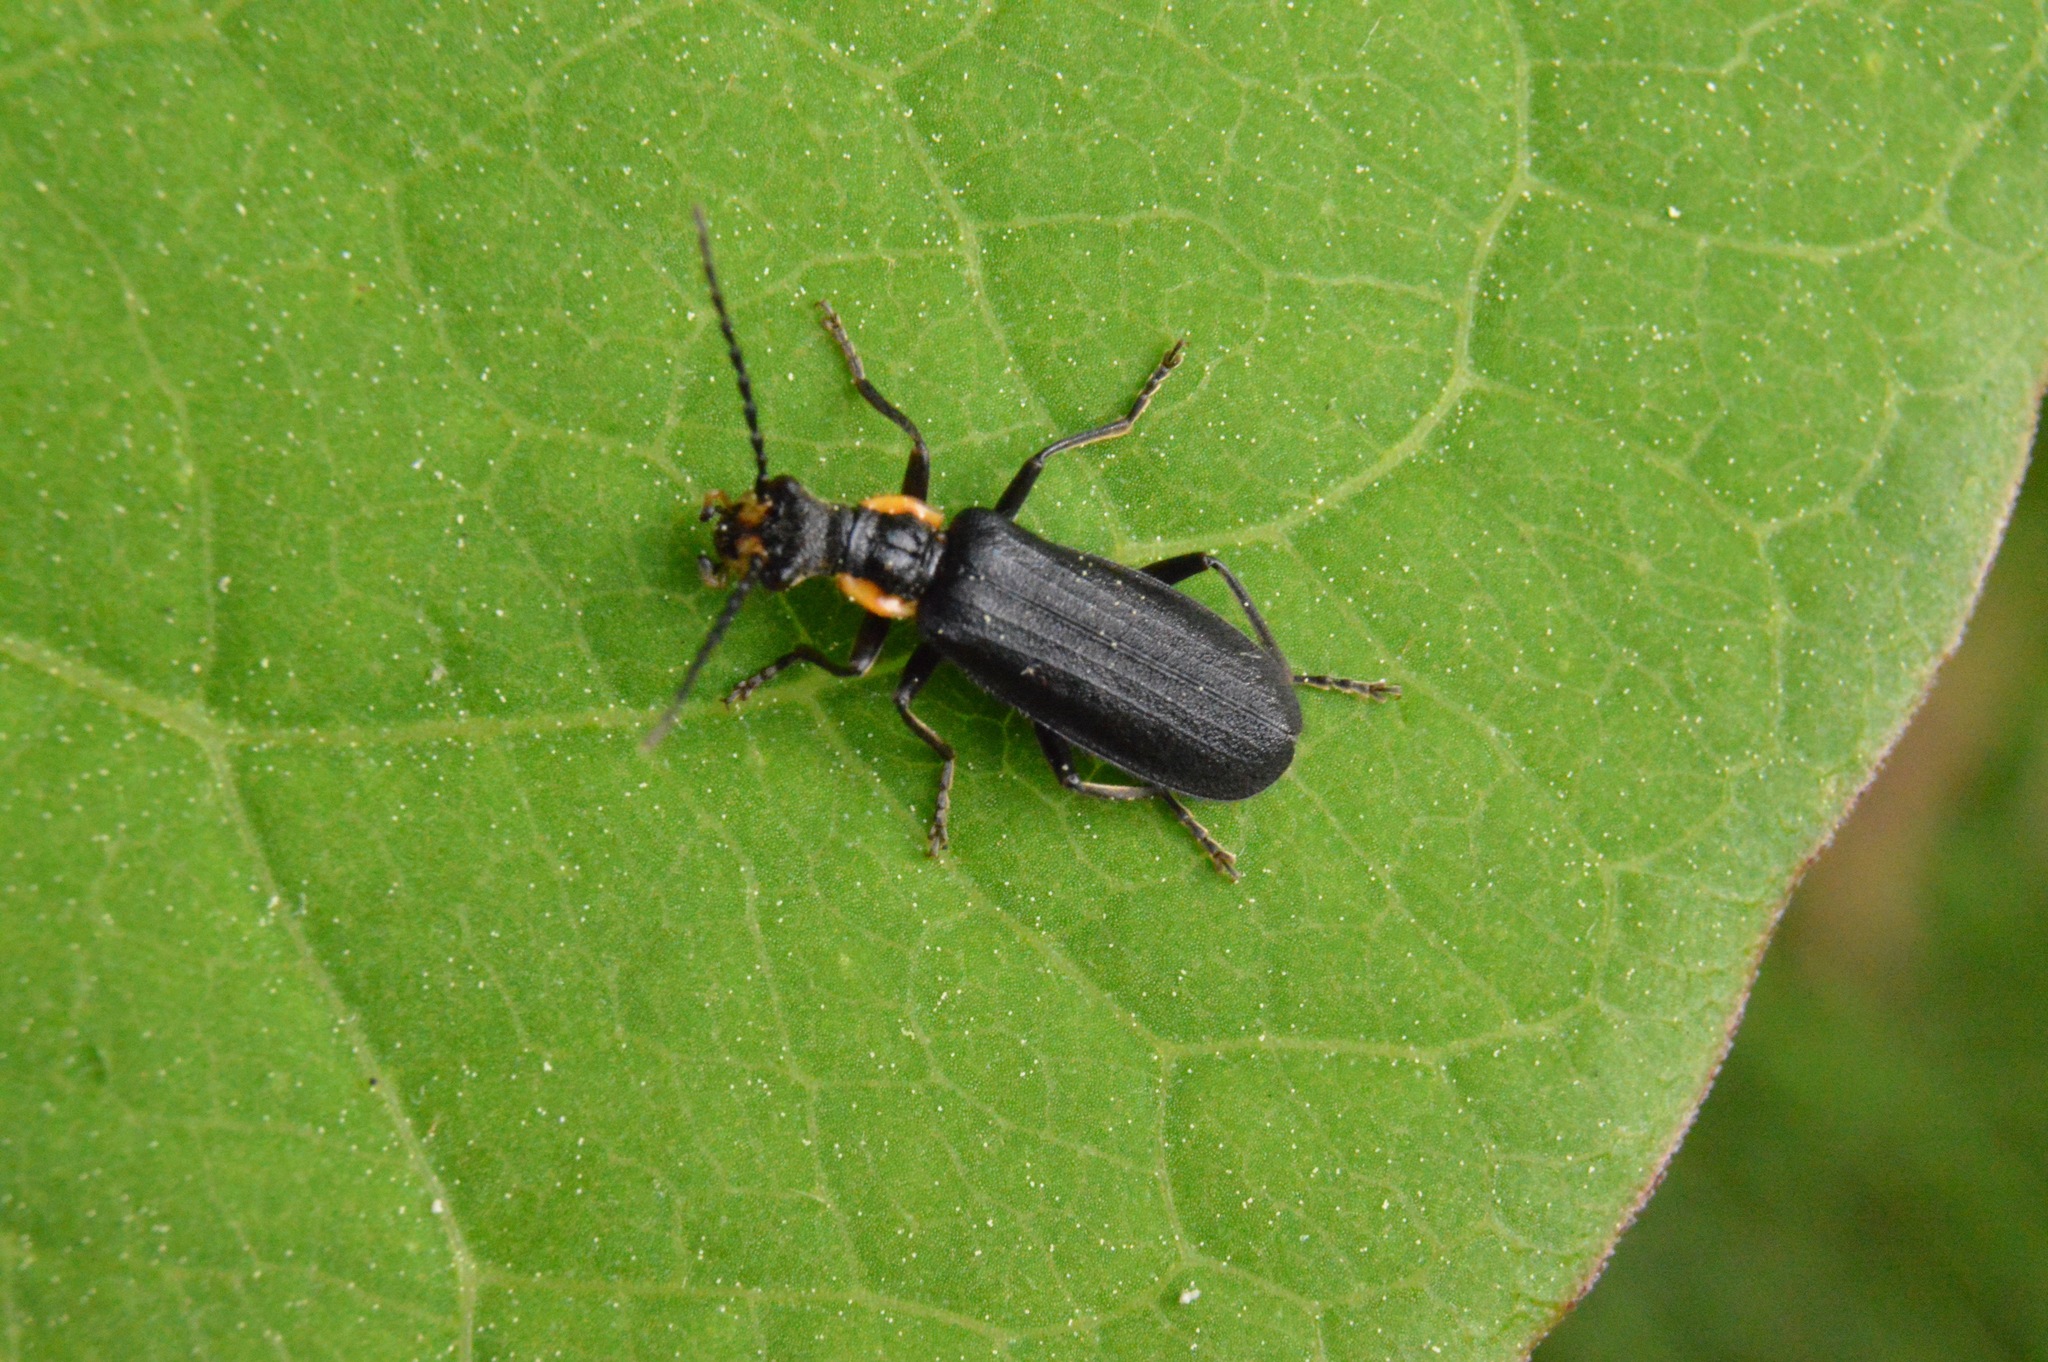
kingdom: Animalia
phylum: Arthropoda
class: Insecta
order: Coleoptera
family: Cantharidae
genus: Podabrus
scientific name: Podabrus rugosulus
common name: Wrinkled soldier beetle
